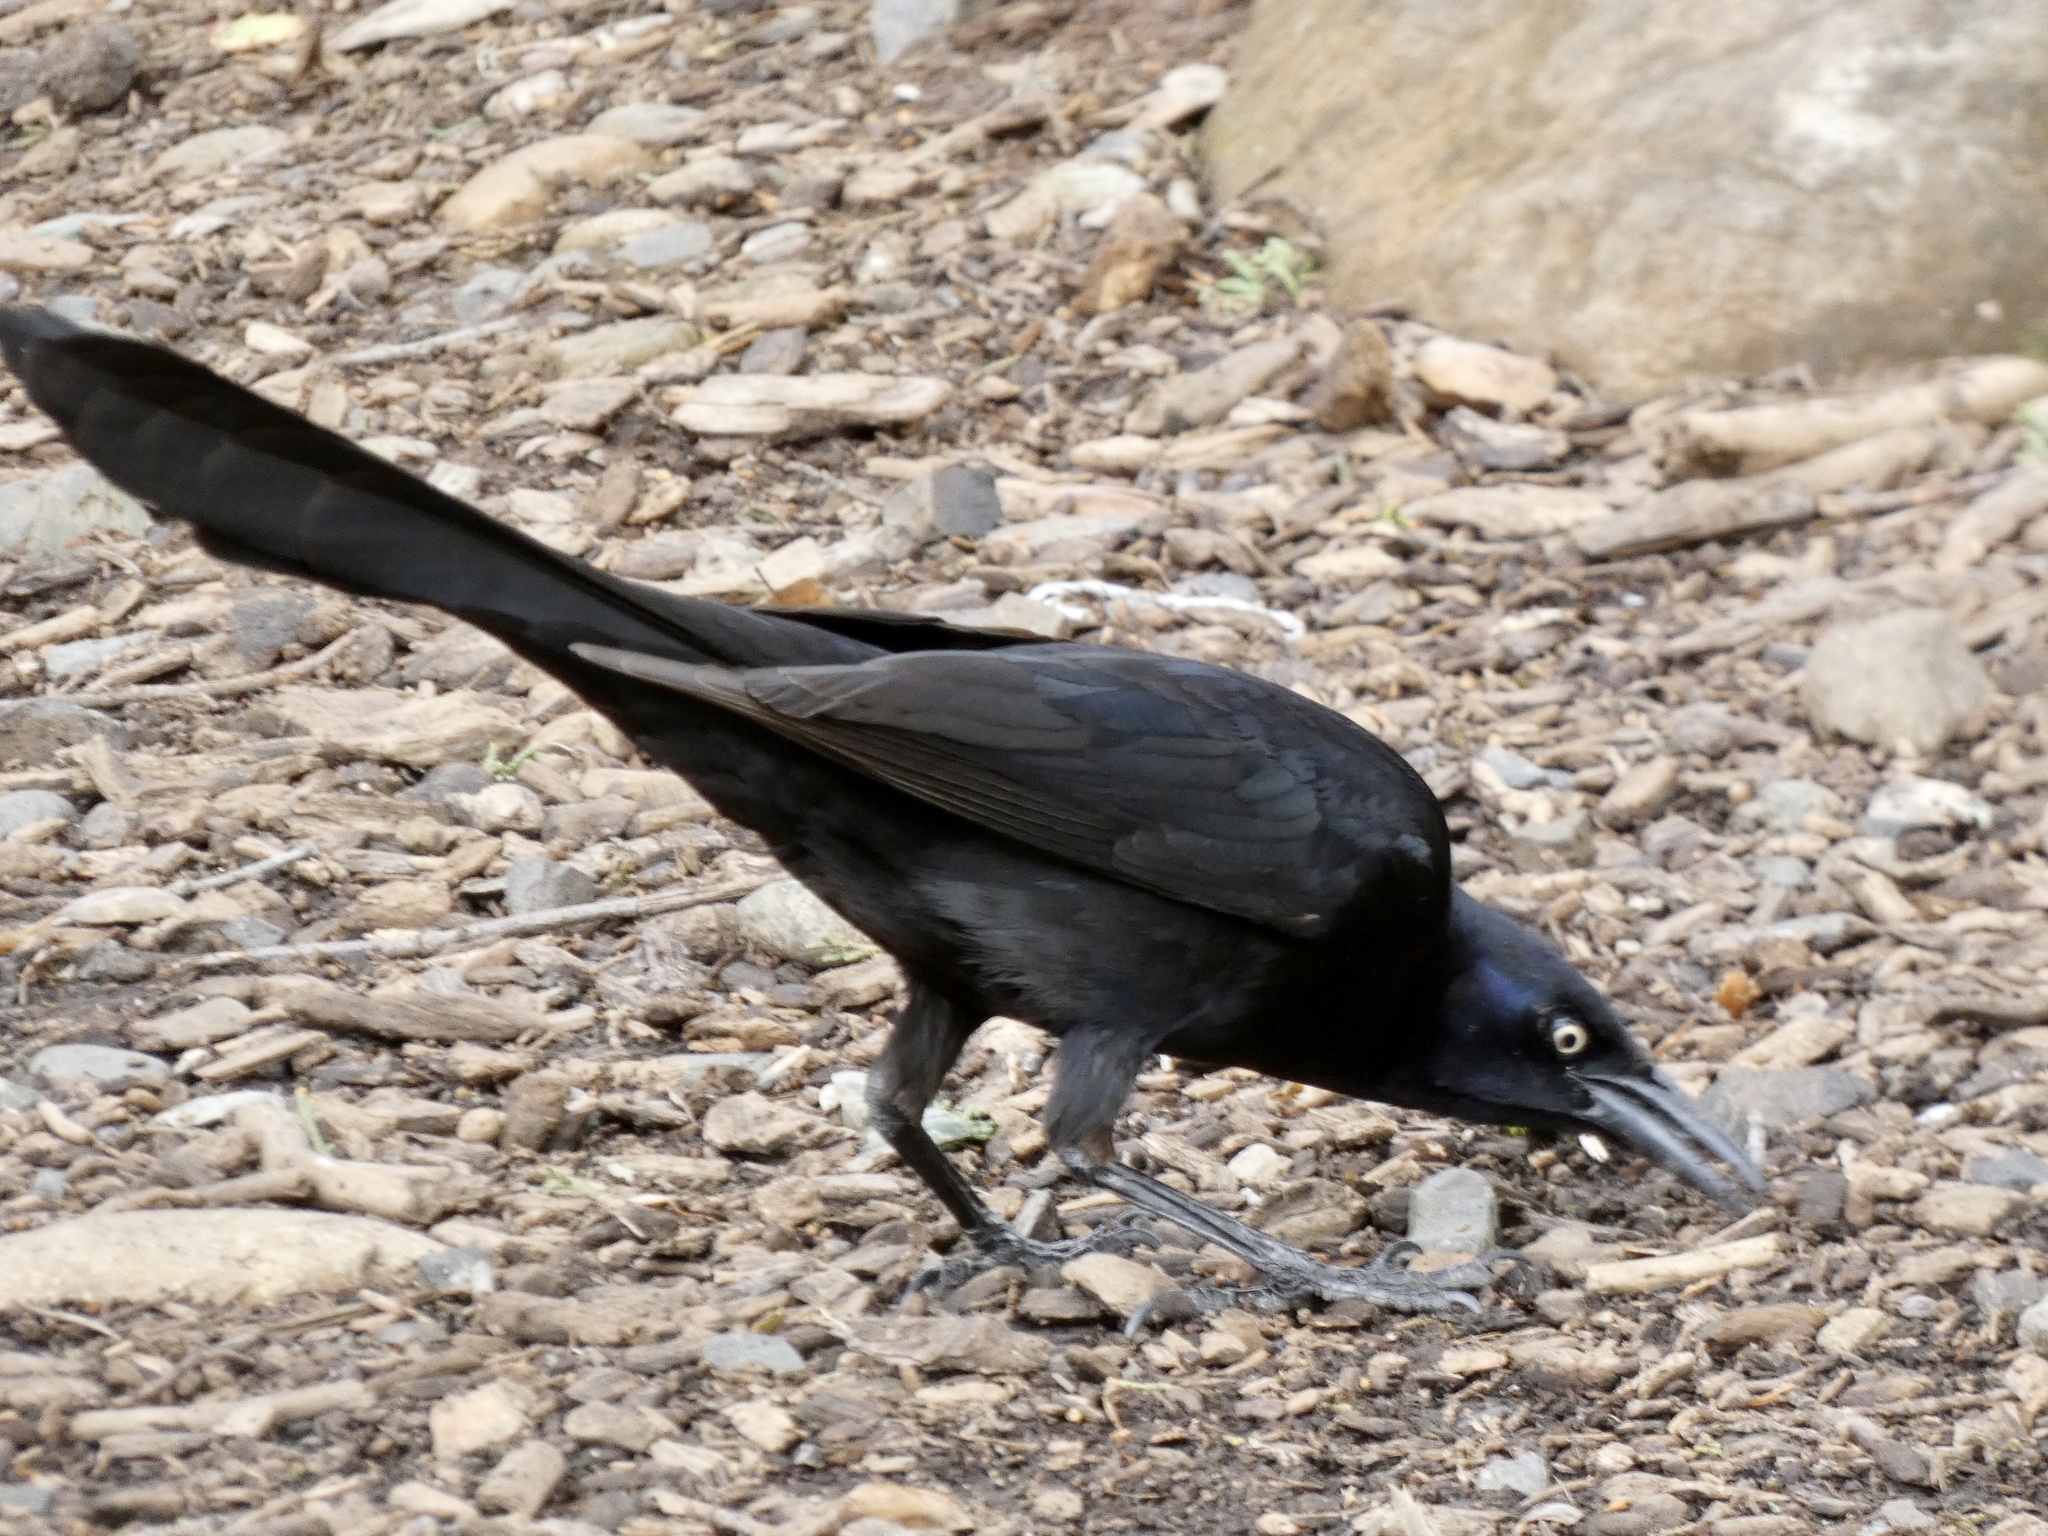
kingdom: Animalia
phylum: Chordata
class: Aves
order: Passeriformes
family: Icteridae
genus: Quiscalus
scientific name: Quiscalus mexicanus
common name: Great-tailed grackle
